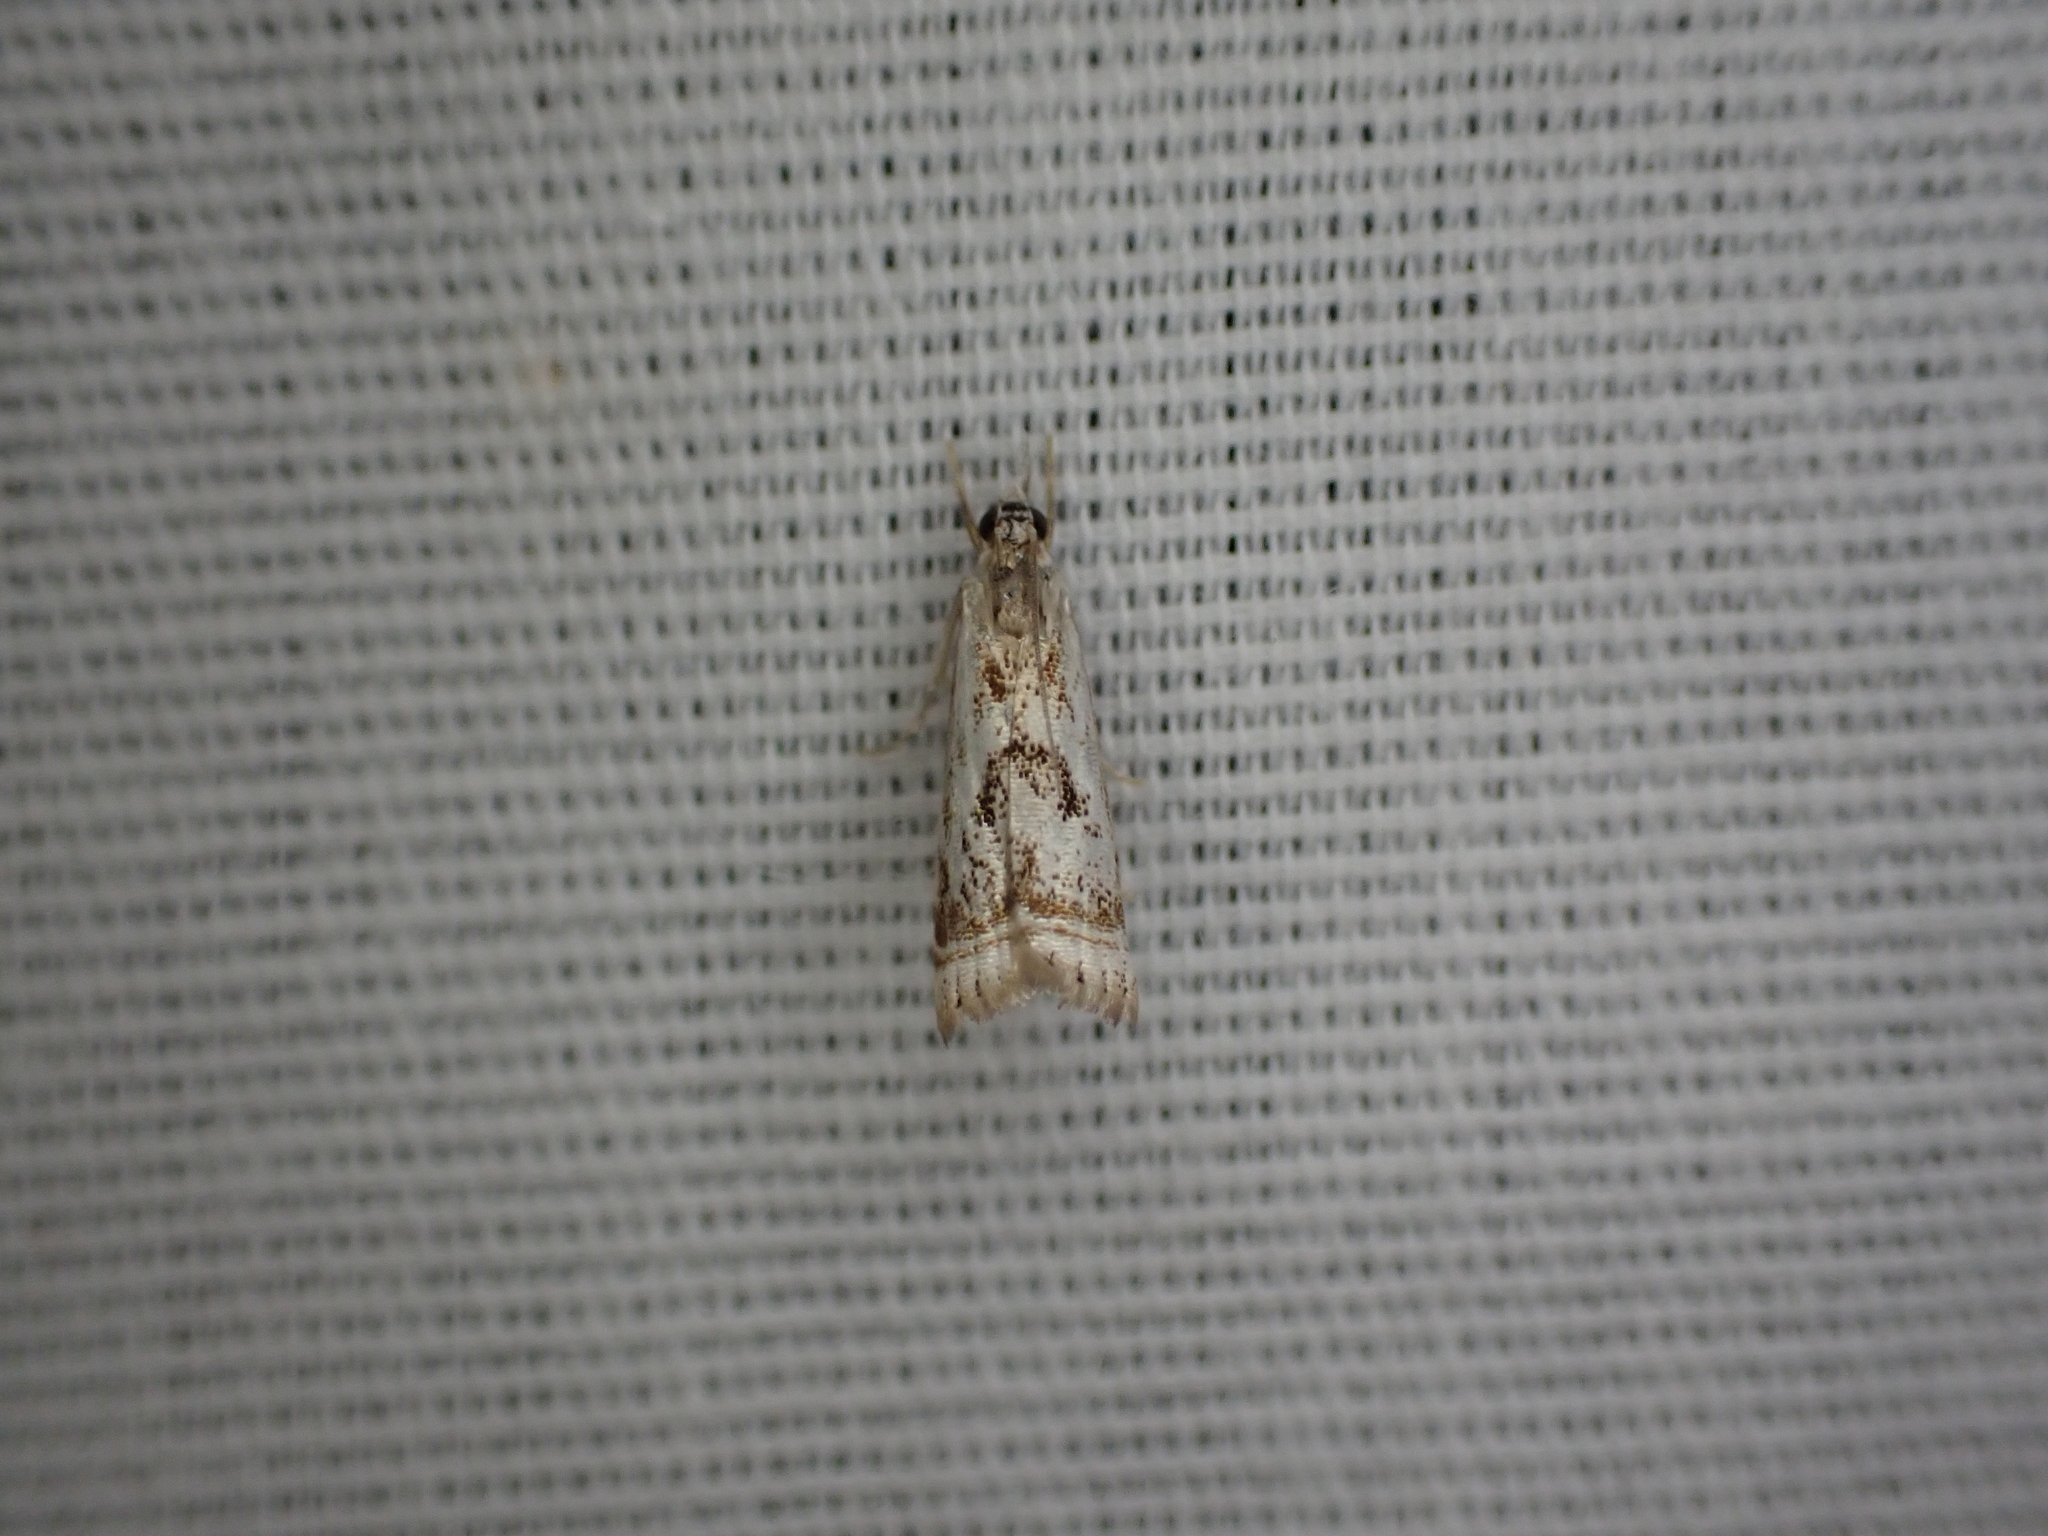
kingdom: Animalia
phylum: Arthropoda
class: Insecta
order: Lepidoptera
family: Crambidae
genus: Microcrambus
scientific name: Microcrambus elegans
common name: Elegant grass-veneer
